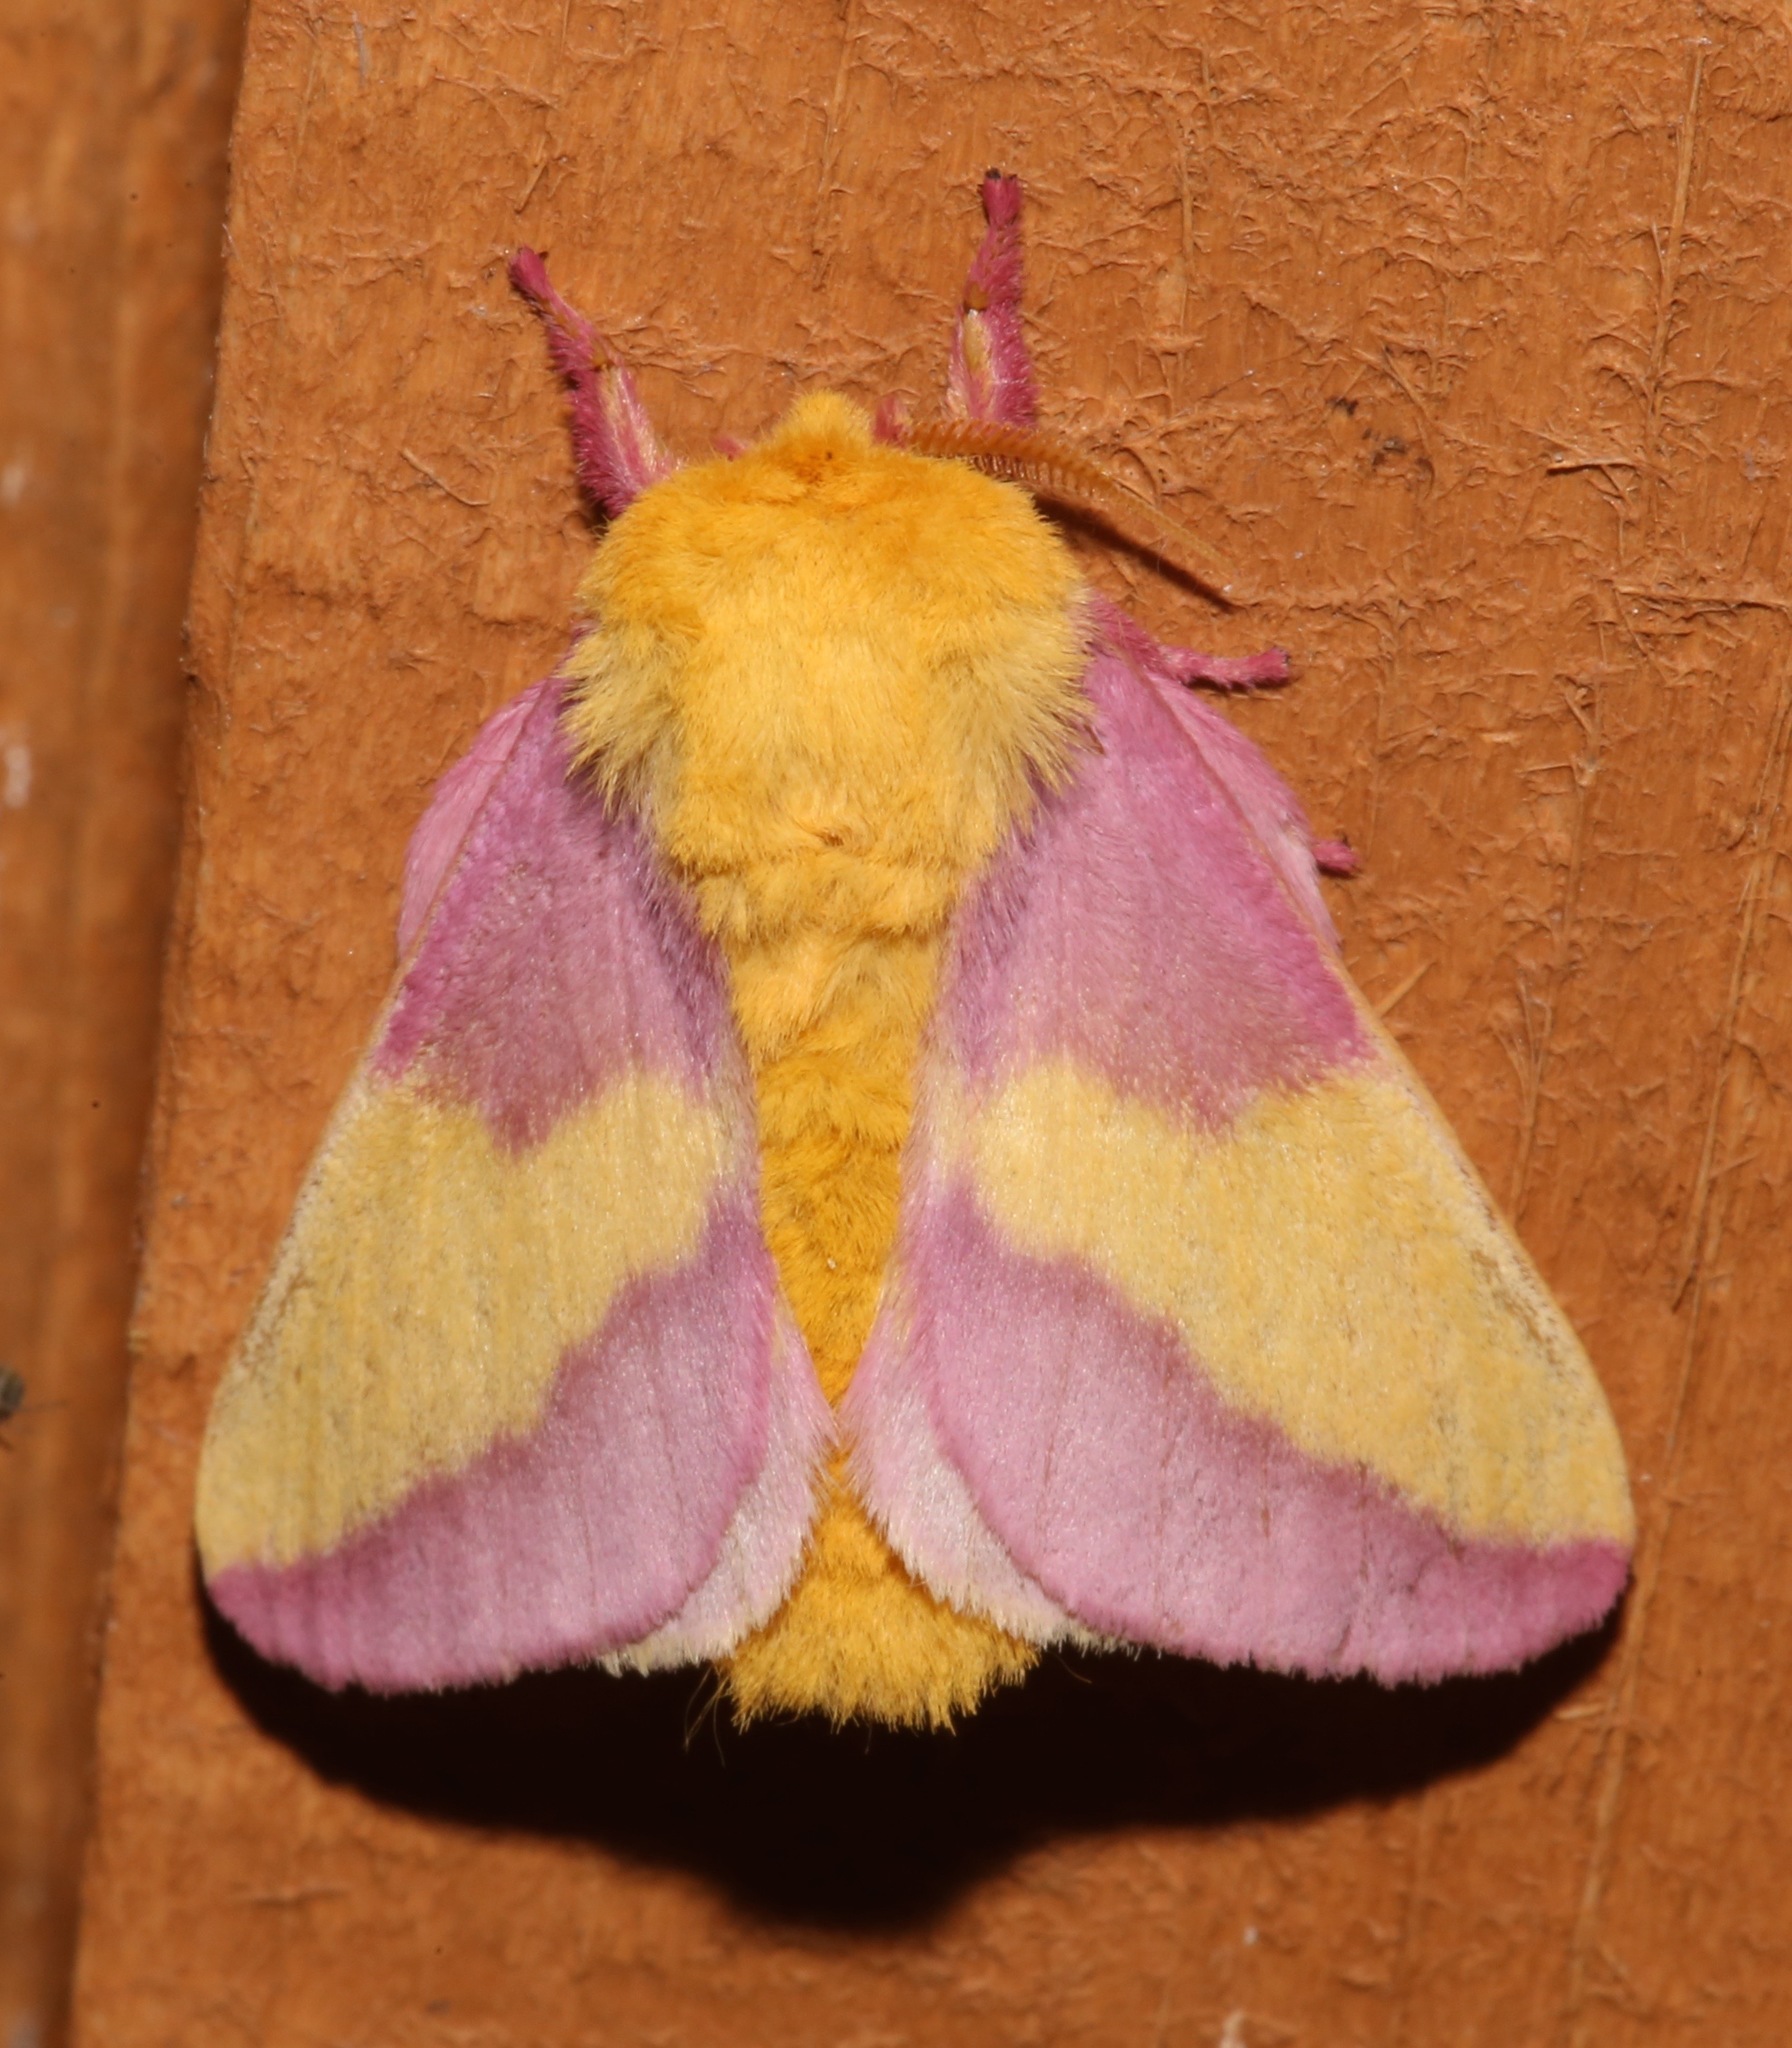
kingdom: Animalia
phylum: Arthropoda
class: Insecta
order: Lepidoptera
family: Saturniidae
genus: Dryocampa
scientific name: Dryocampa rubicunda
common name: Rosy maple moth
